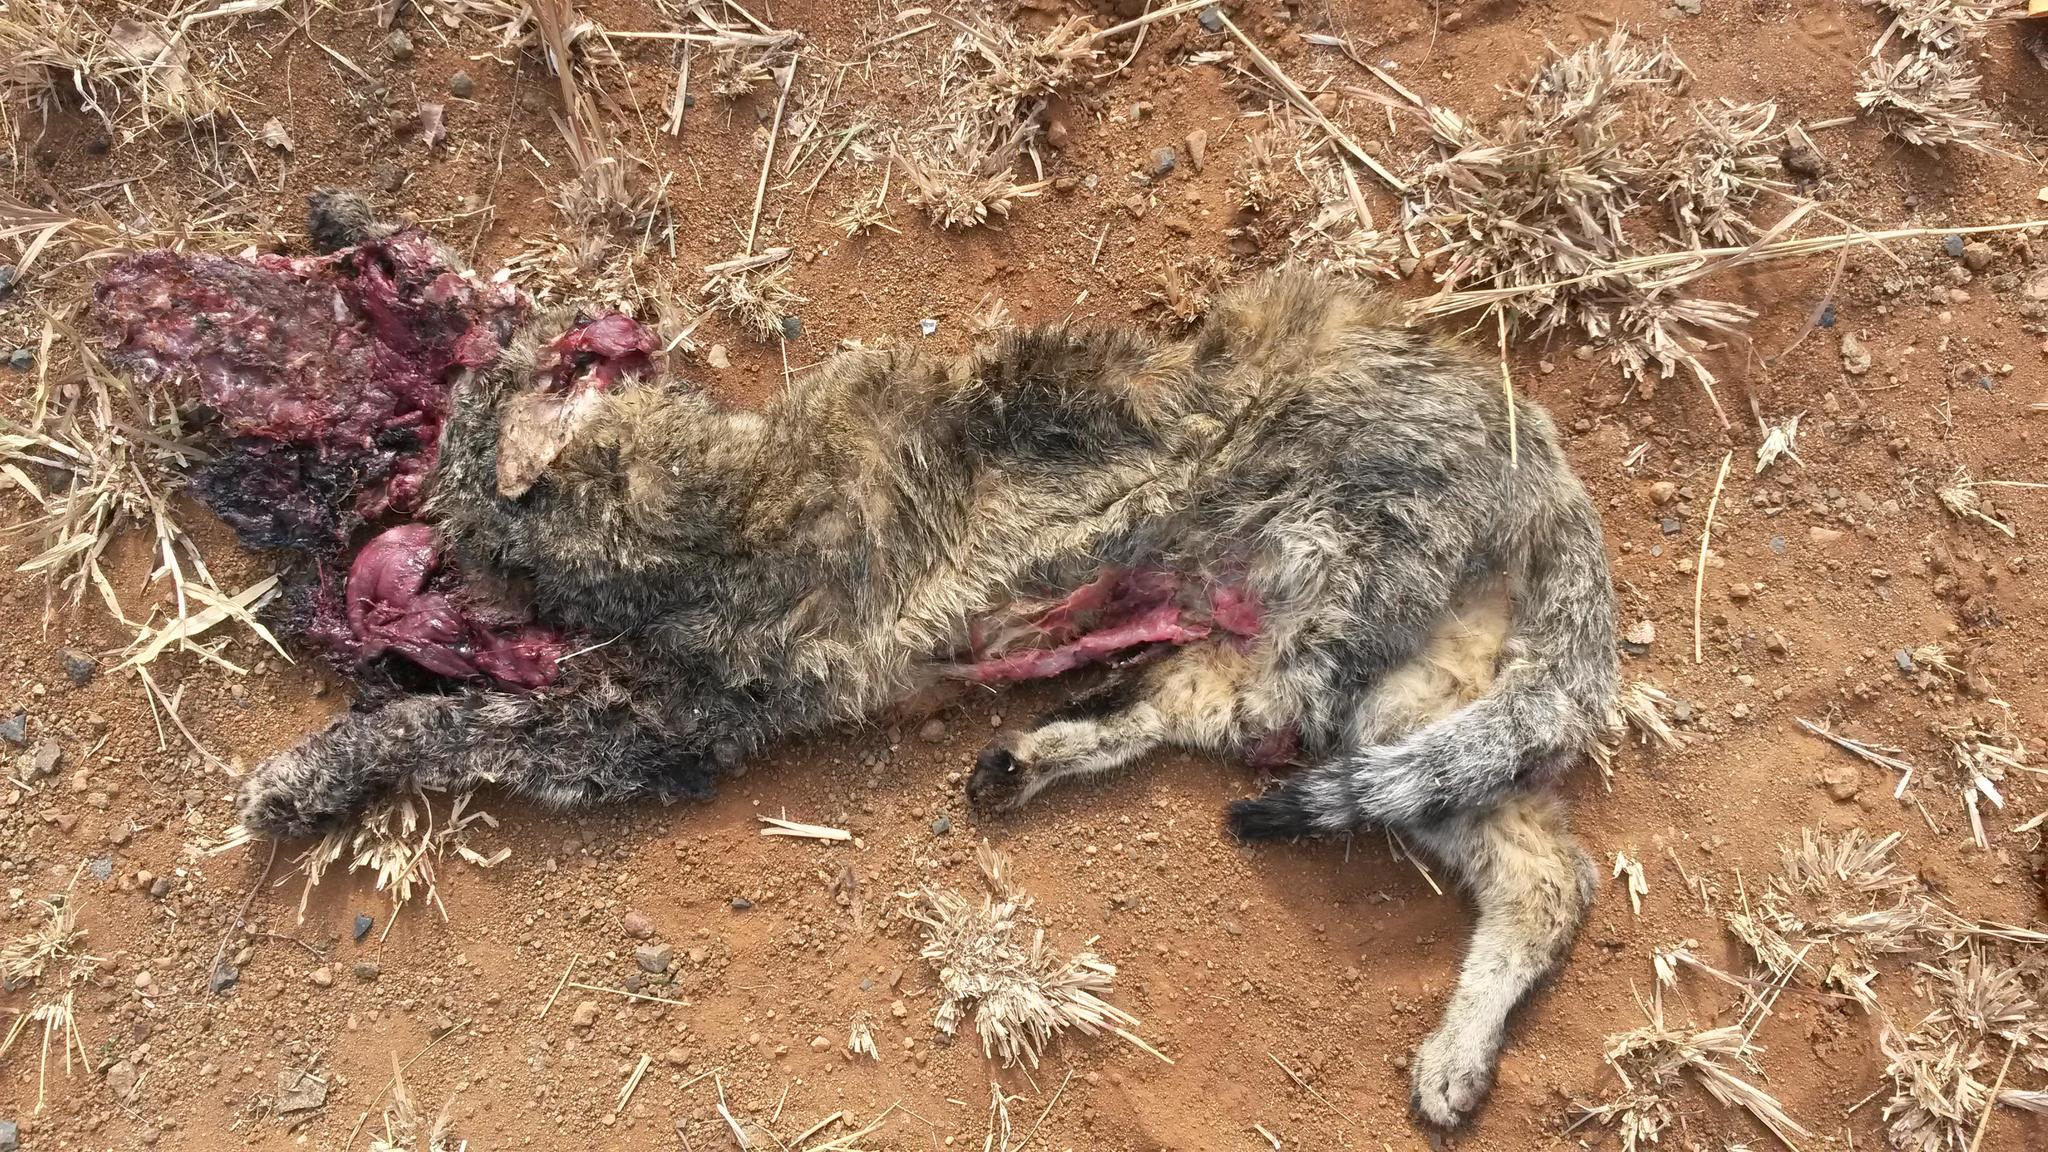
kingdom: Animalia
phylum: Chordata
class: Mammalia
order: Carnivora
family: Felidae
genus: Felis
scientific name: Felis silvestris
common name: Wildcat
